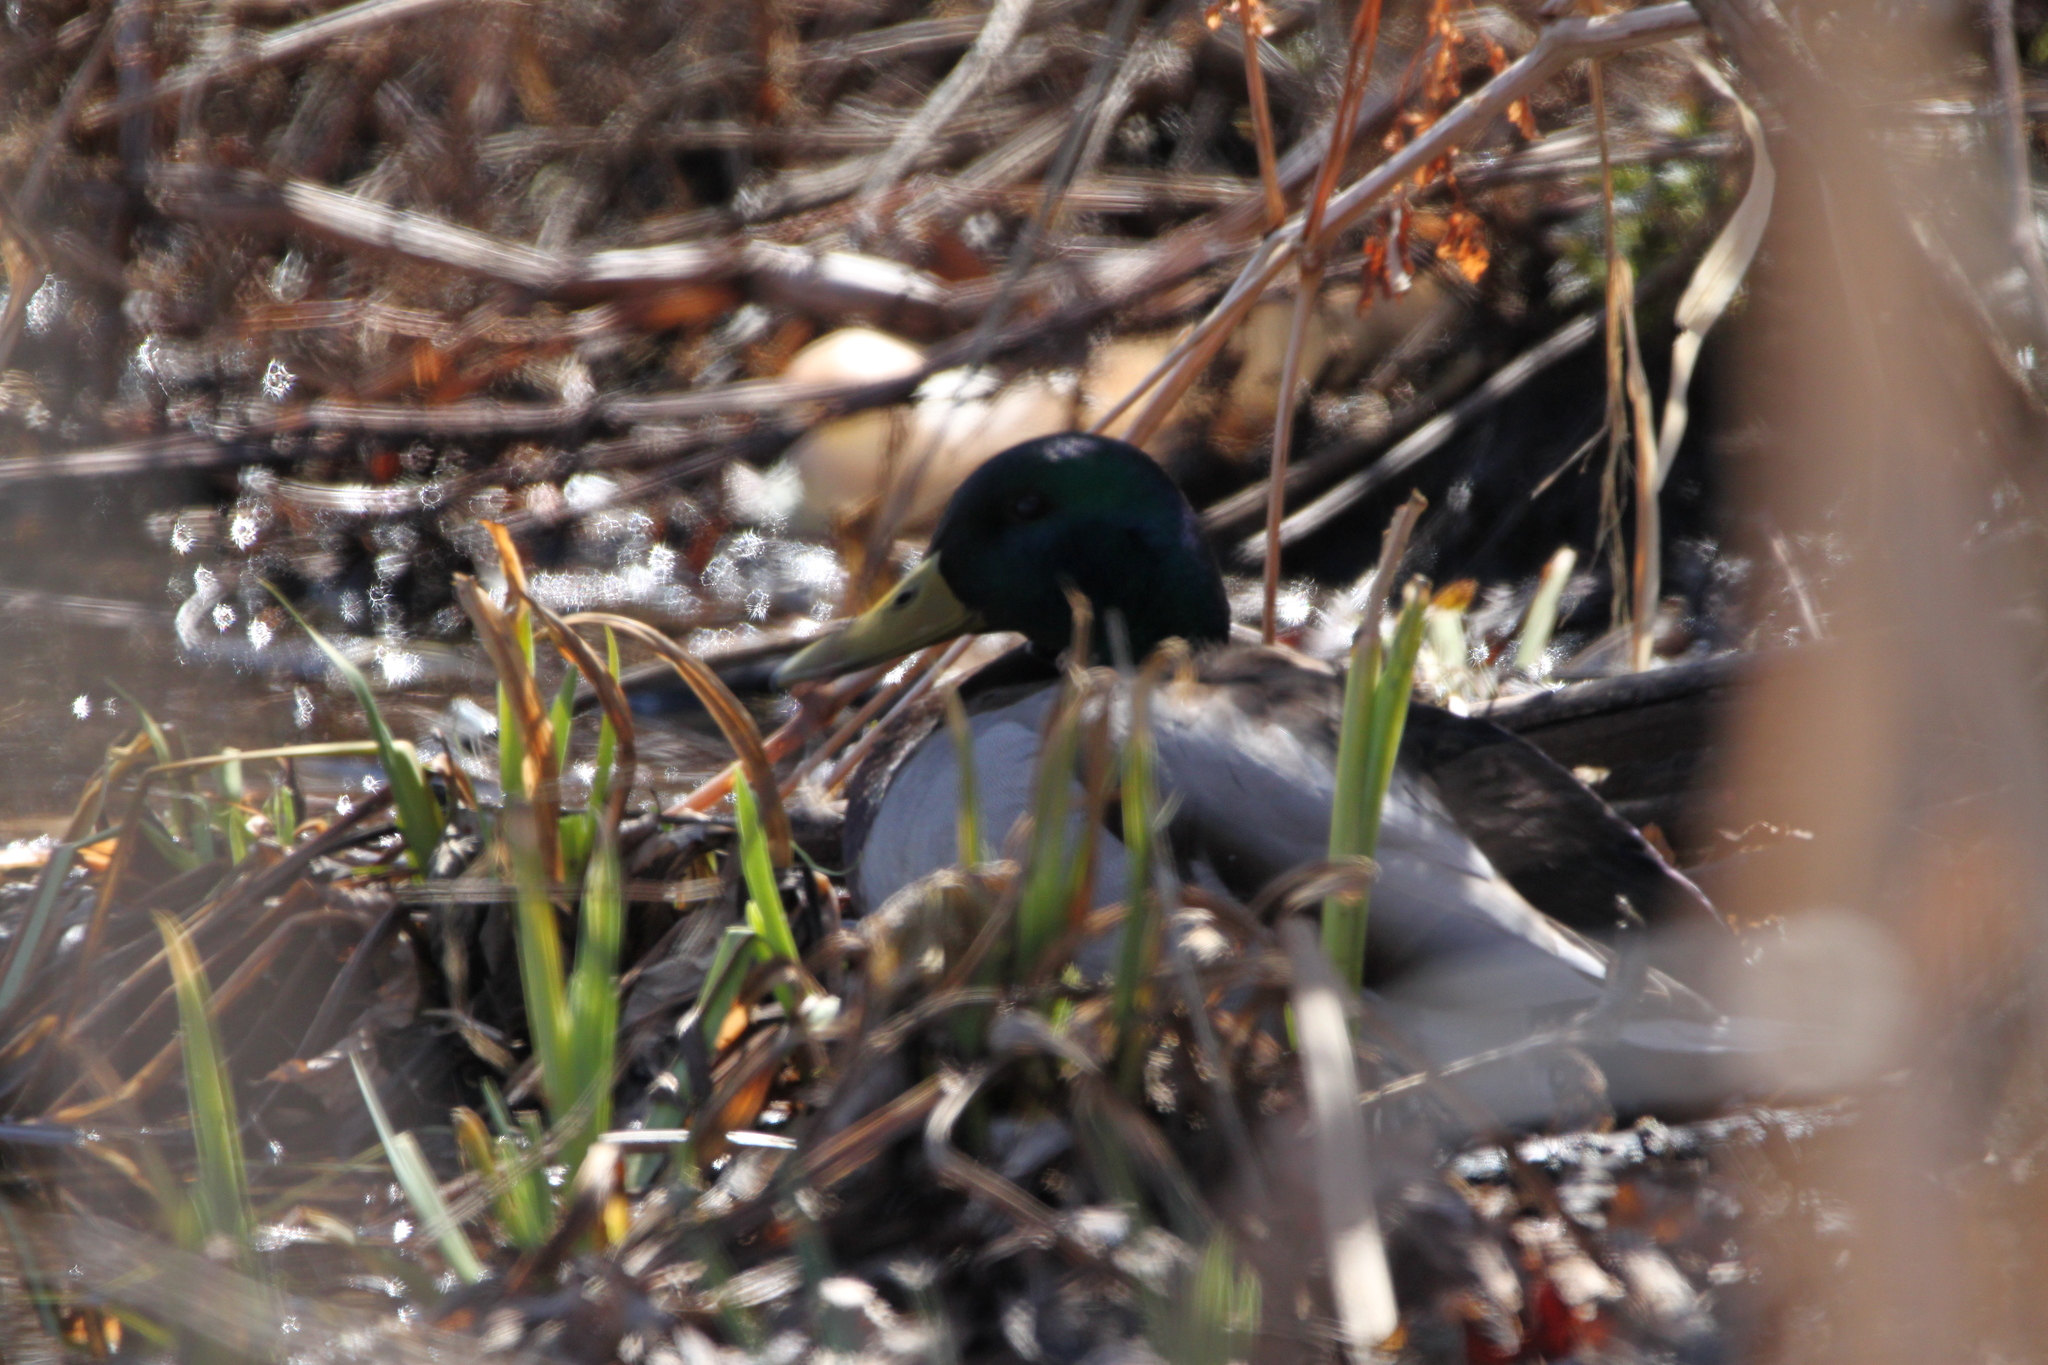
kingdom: Animalia
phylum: Chordata
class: Aves
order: Anseriformes
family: Anatidae
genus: Anas
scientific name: Anas platyrhynchos
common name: Mallard
